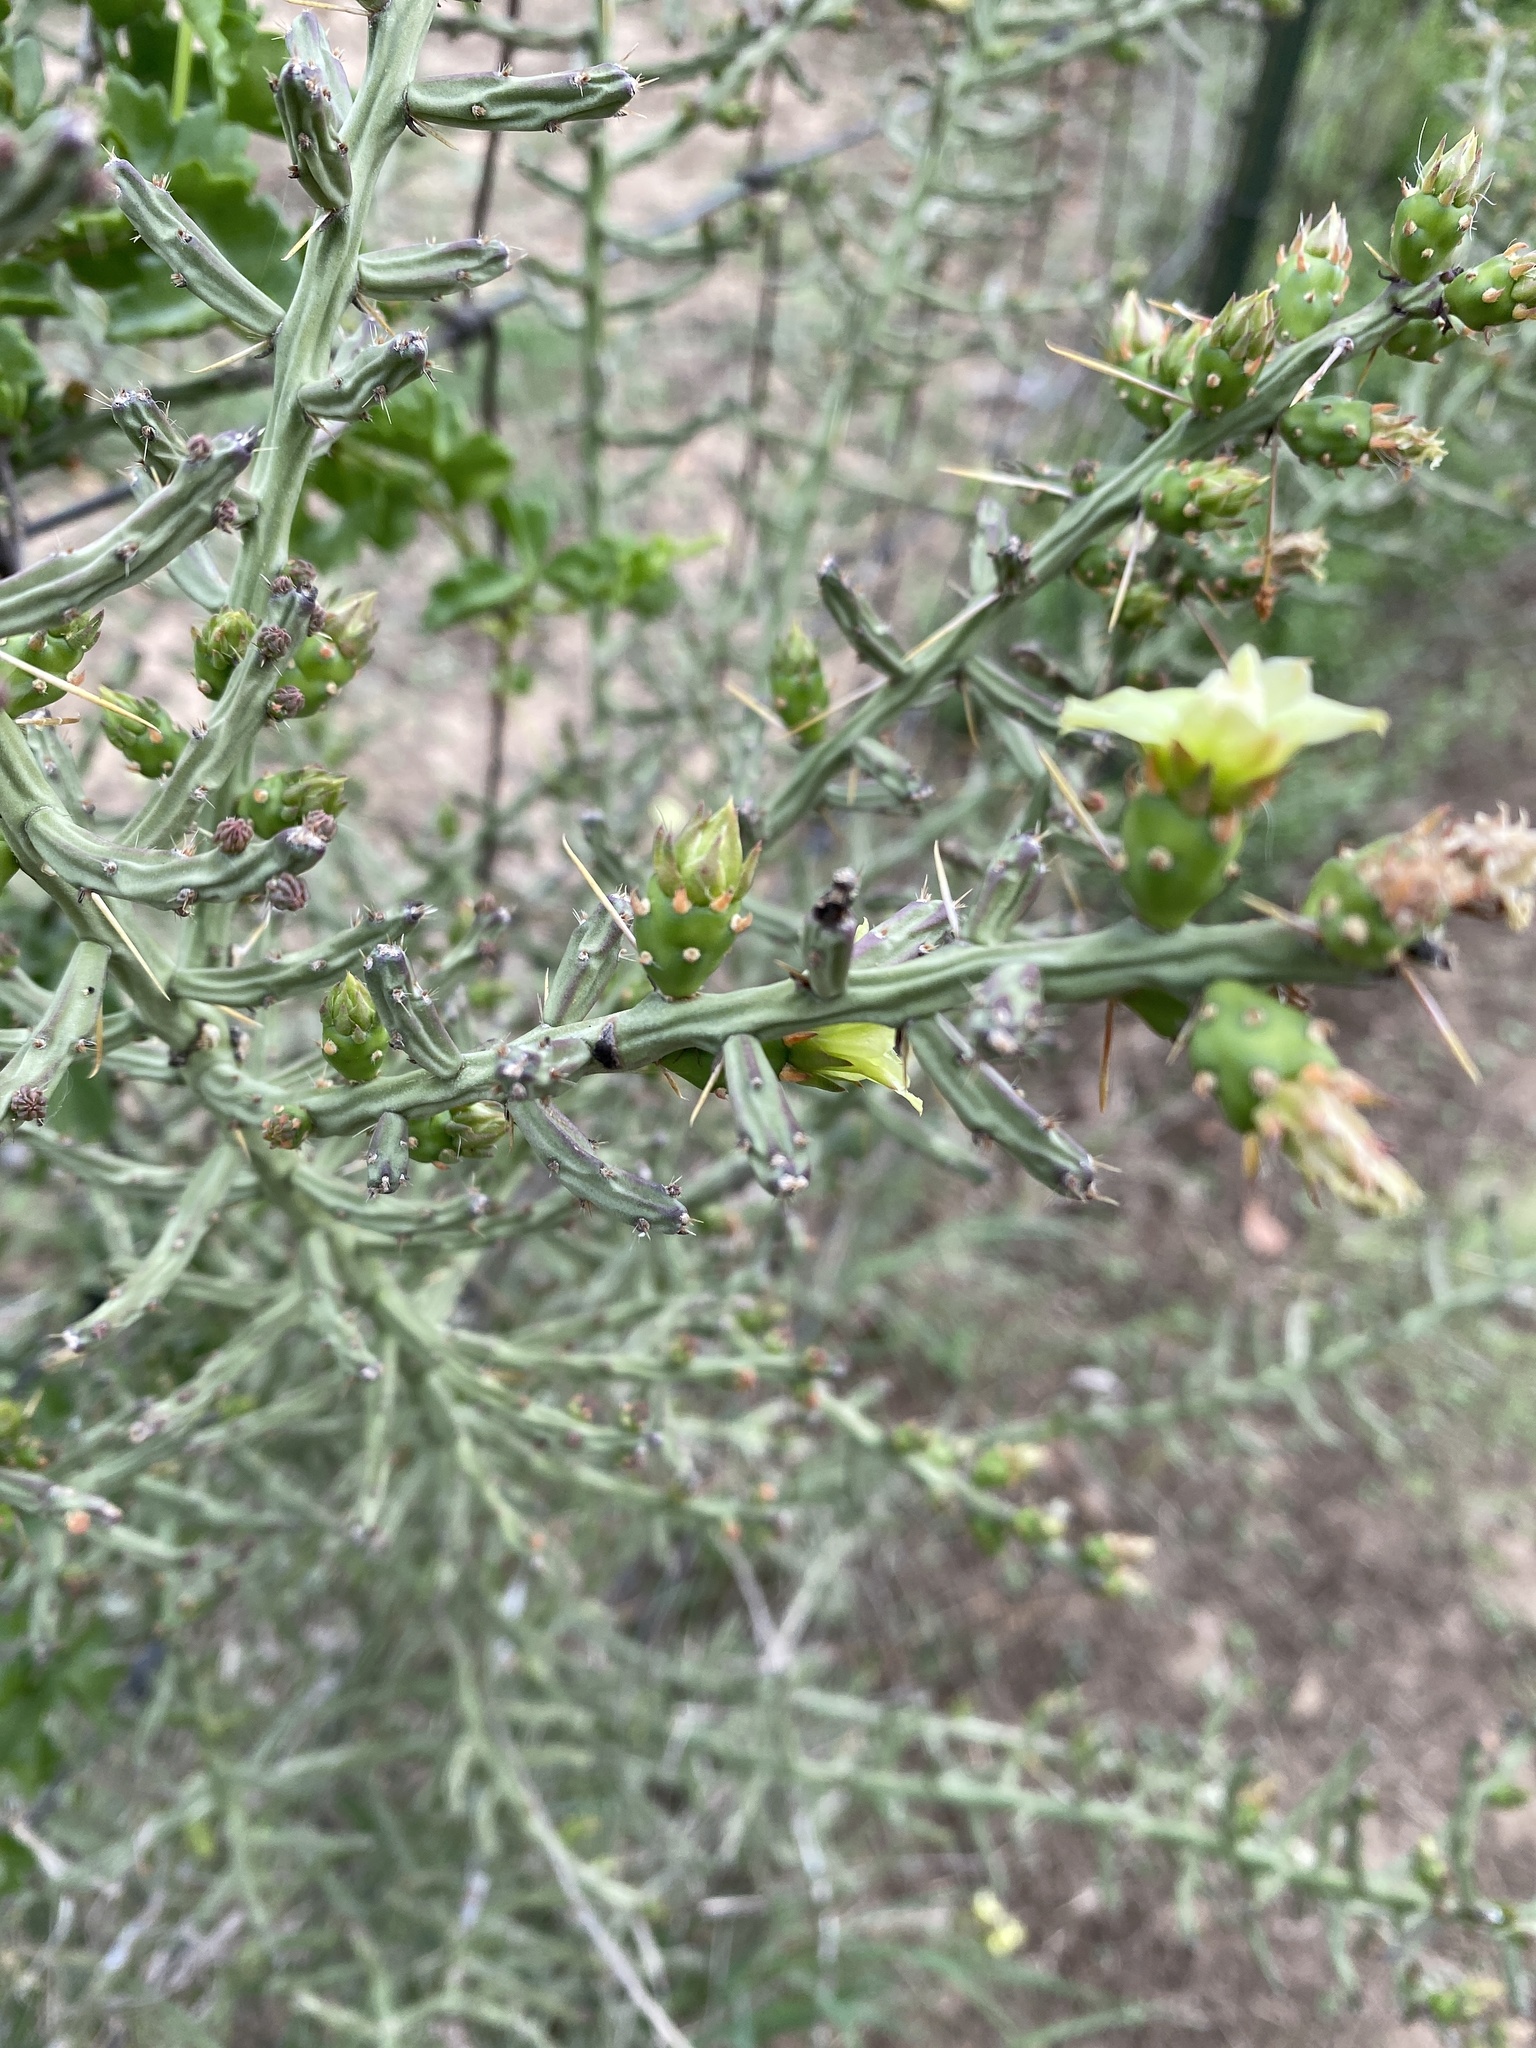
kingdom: Plantae
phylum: Tracheophyta
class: Magnoliopsida
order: Caryophyllales
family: Cactaceae
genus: Cylindropuntia
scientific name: Cylindropuntia leptocaulis
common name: Christmas cactus
